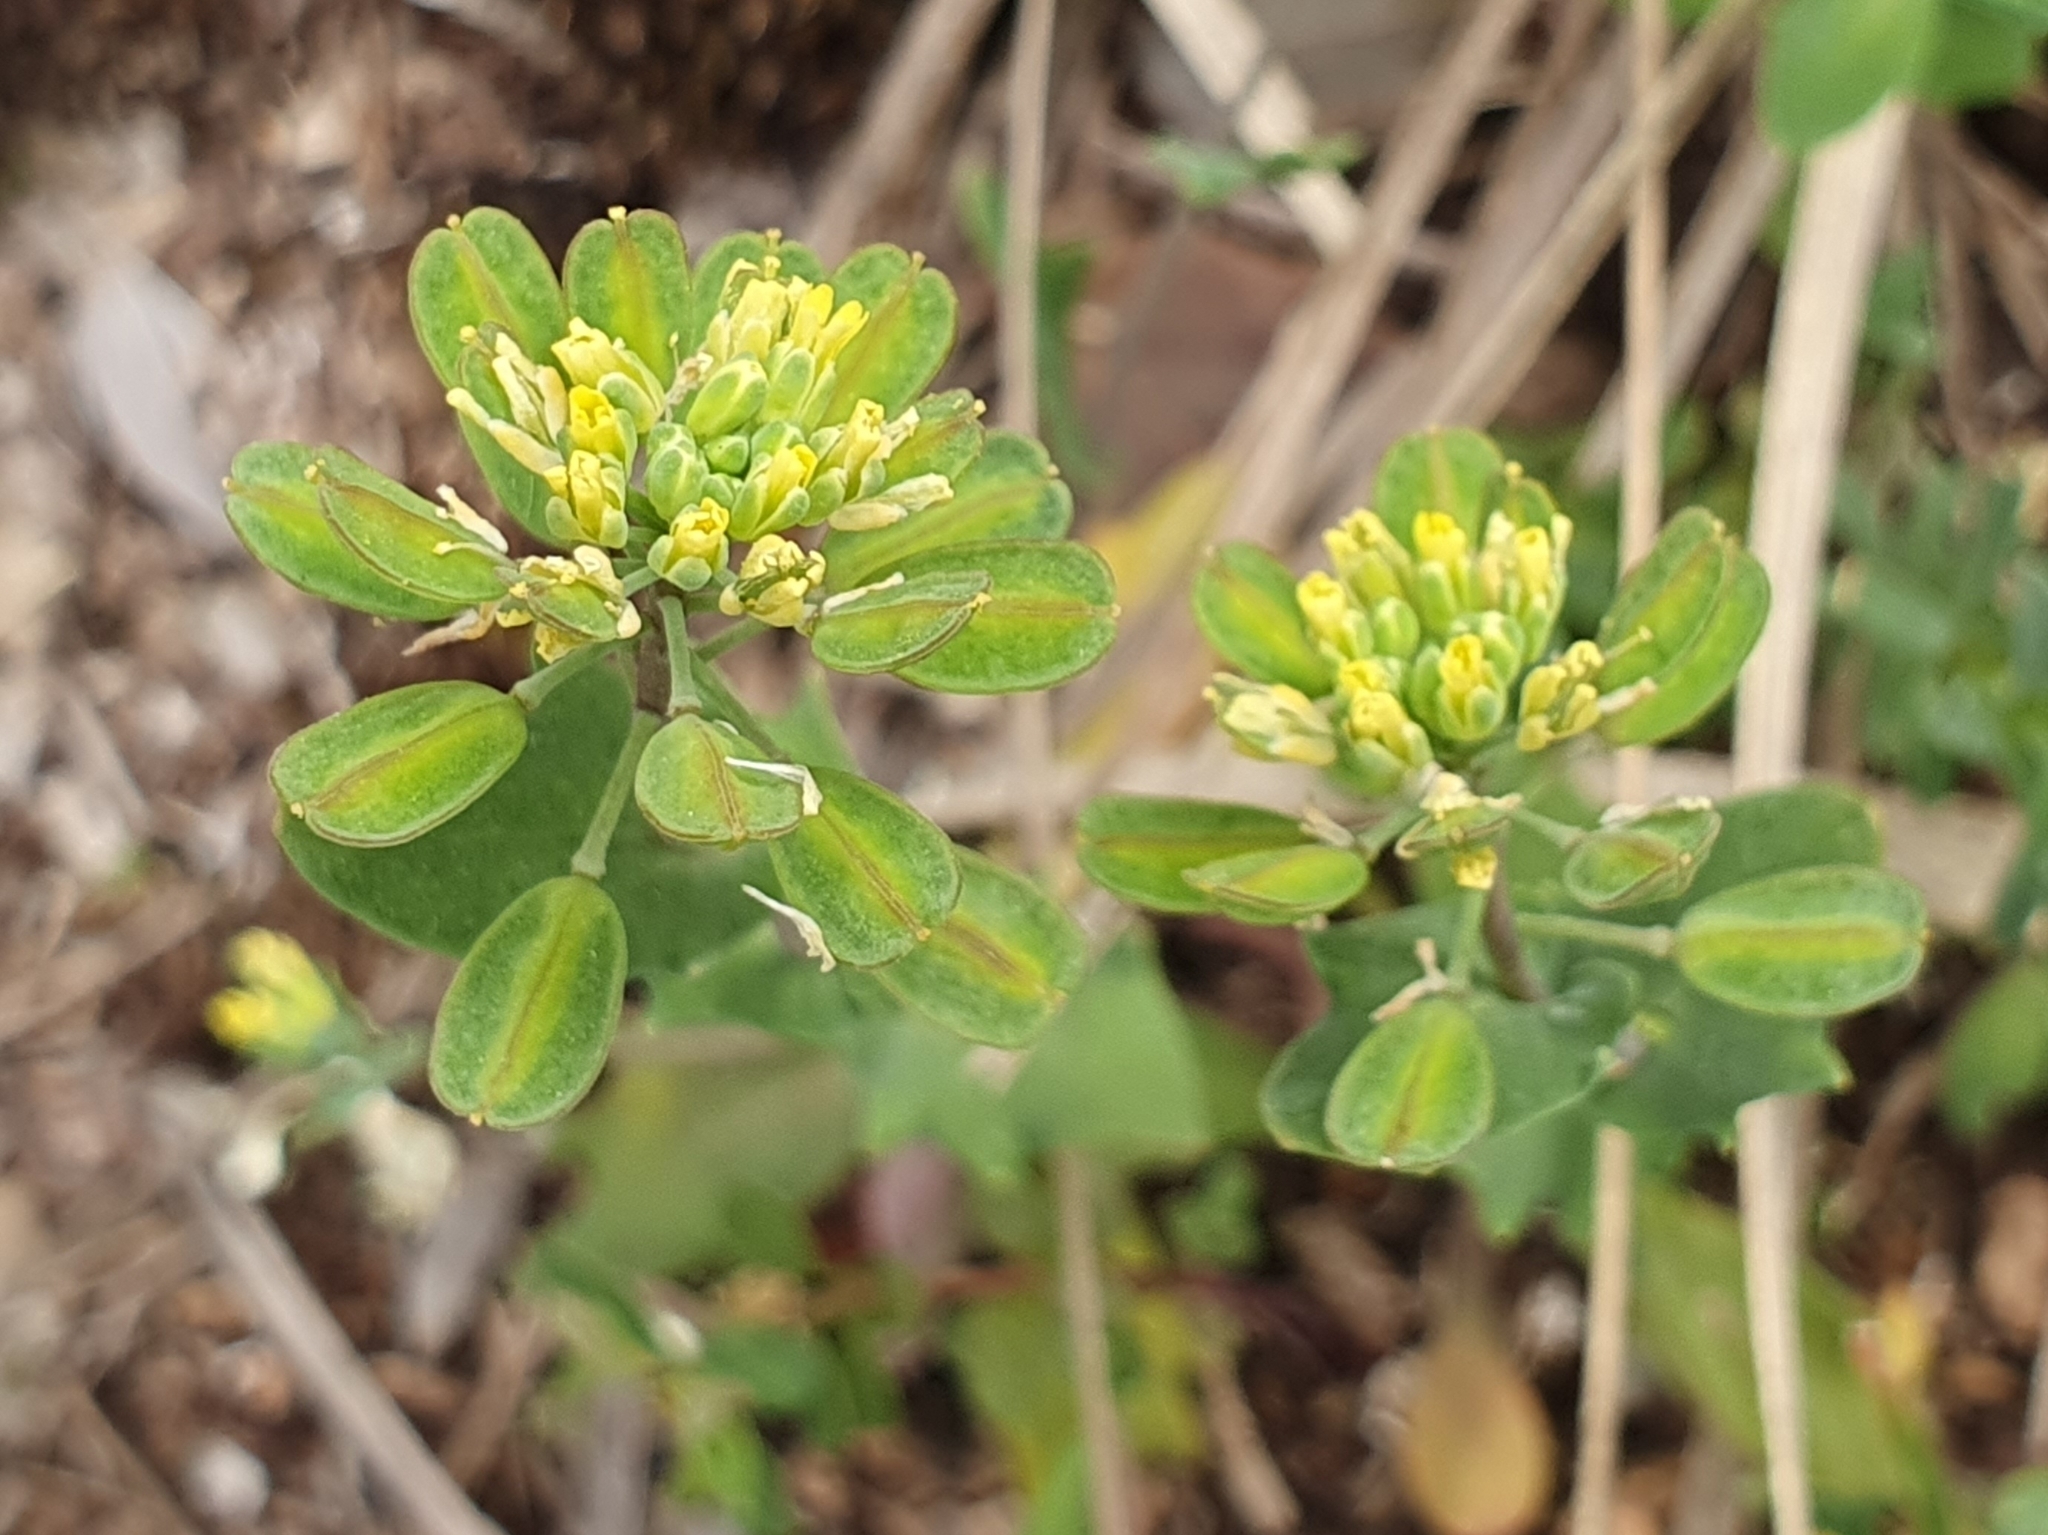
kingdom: Plantae
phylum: Tracheophyta
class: Magnoliopsida
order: Brassicales
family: Brassicaceae
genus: Bivonaea
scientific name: Bivonaea lutea
